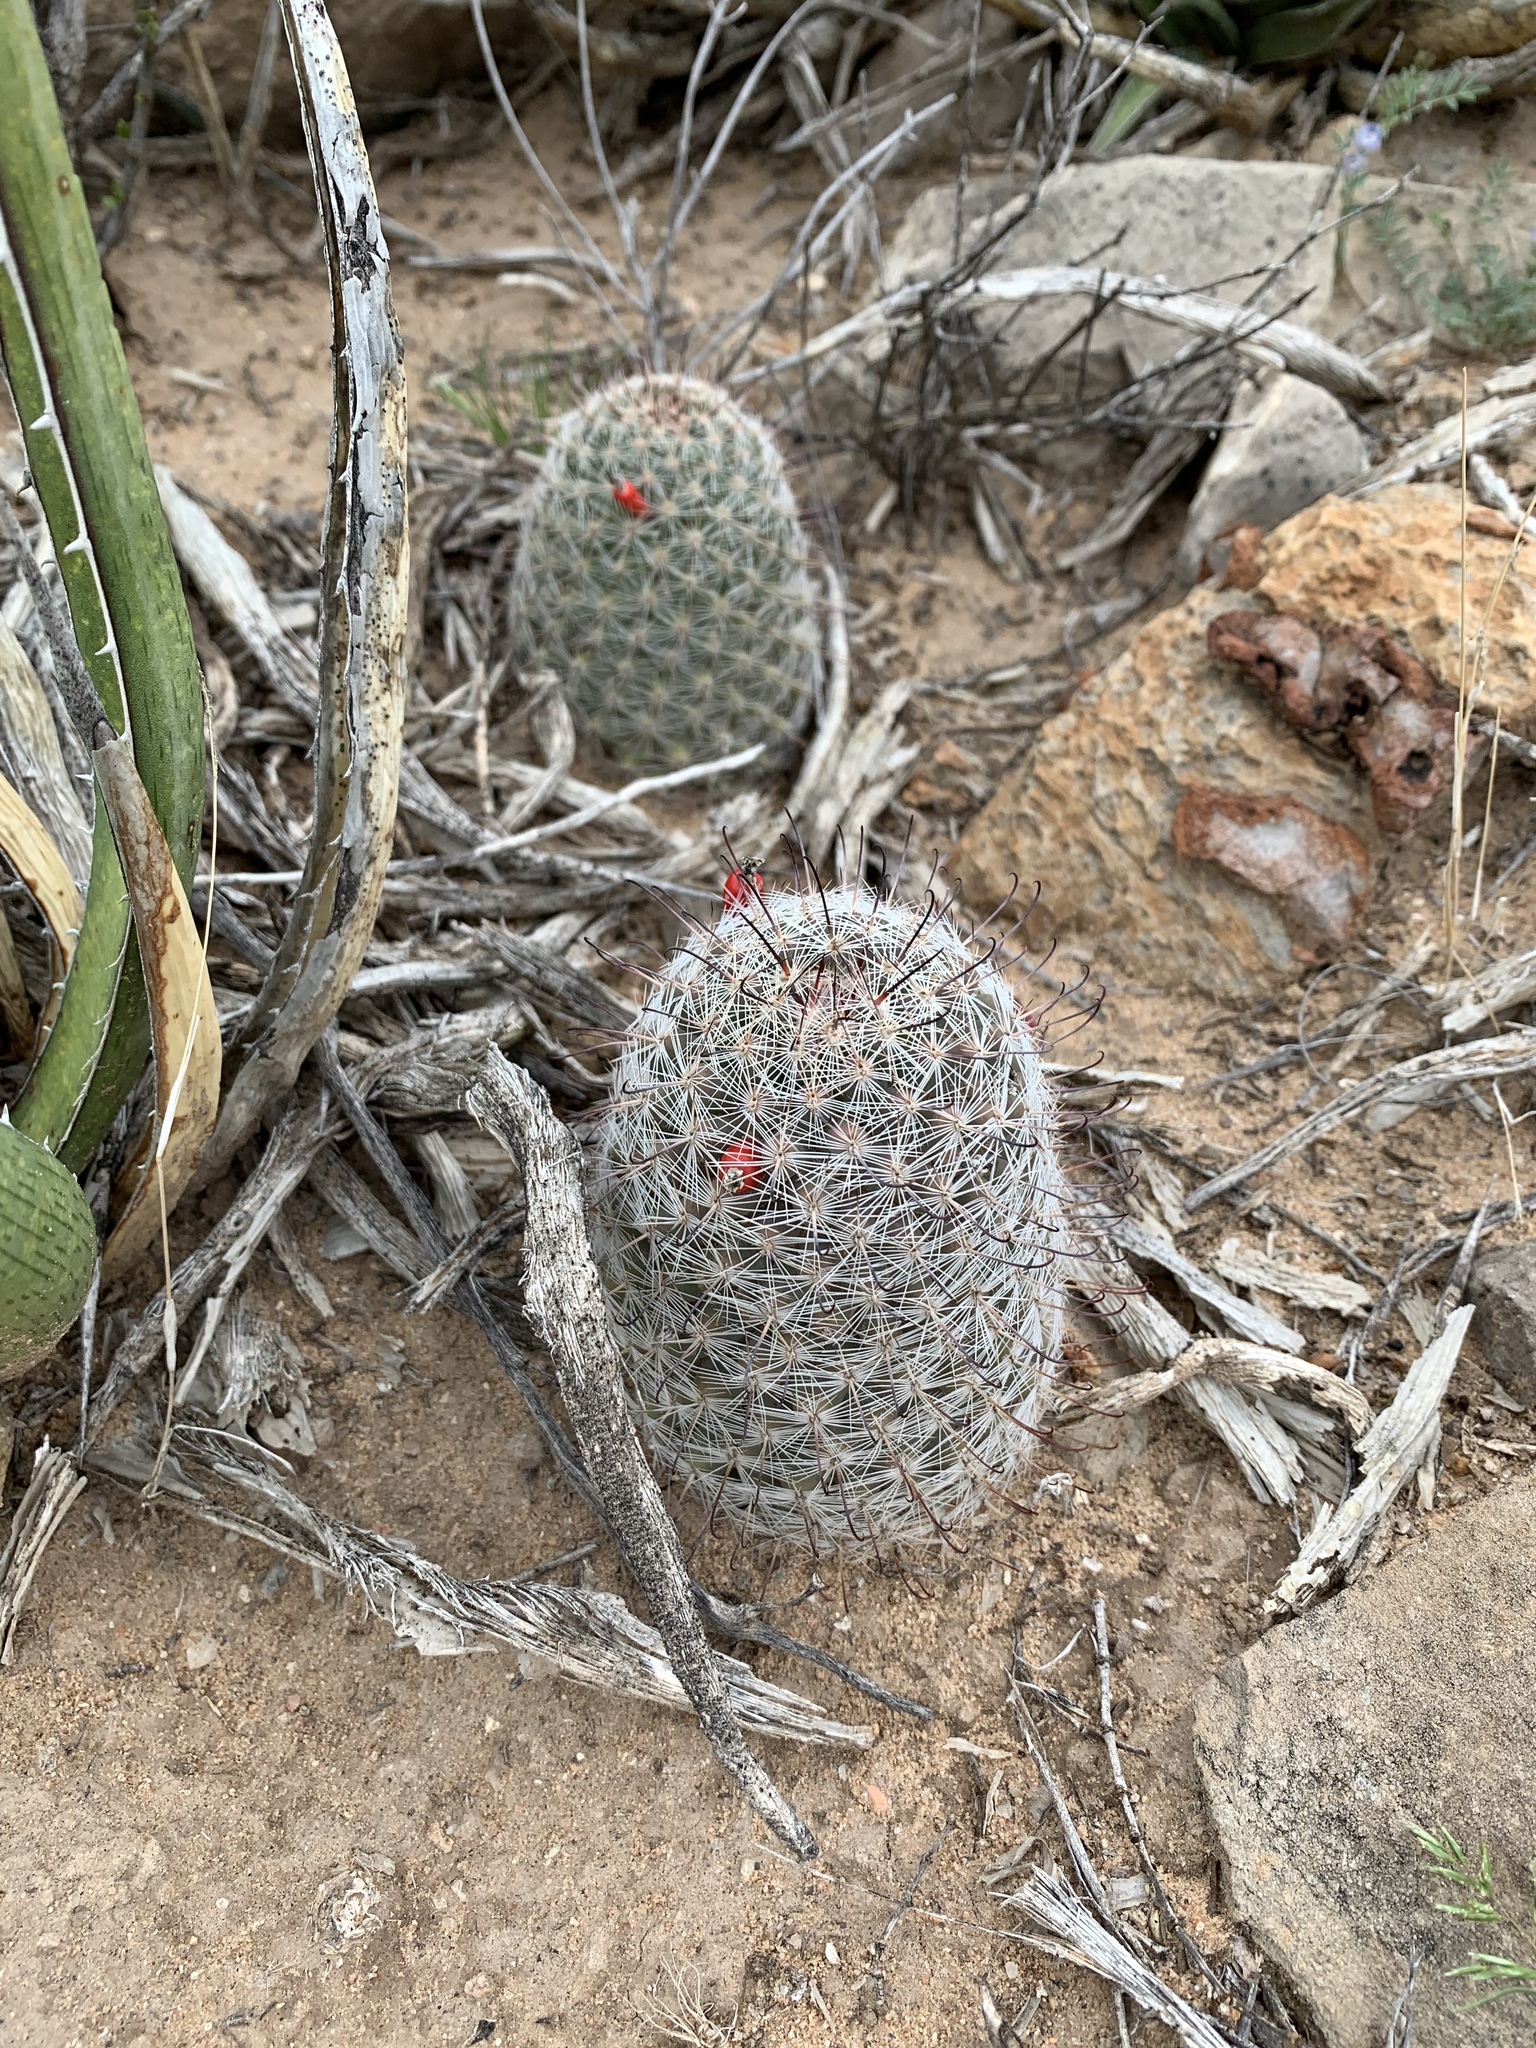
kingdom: Plantae
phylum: Tracheophyta
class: Magnoliopsida
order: Caryophyllales
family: Cactaceae
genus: Cochemiea
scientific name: Cochemiea grahamii
